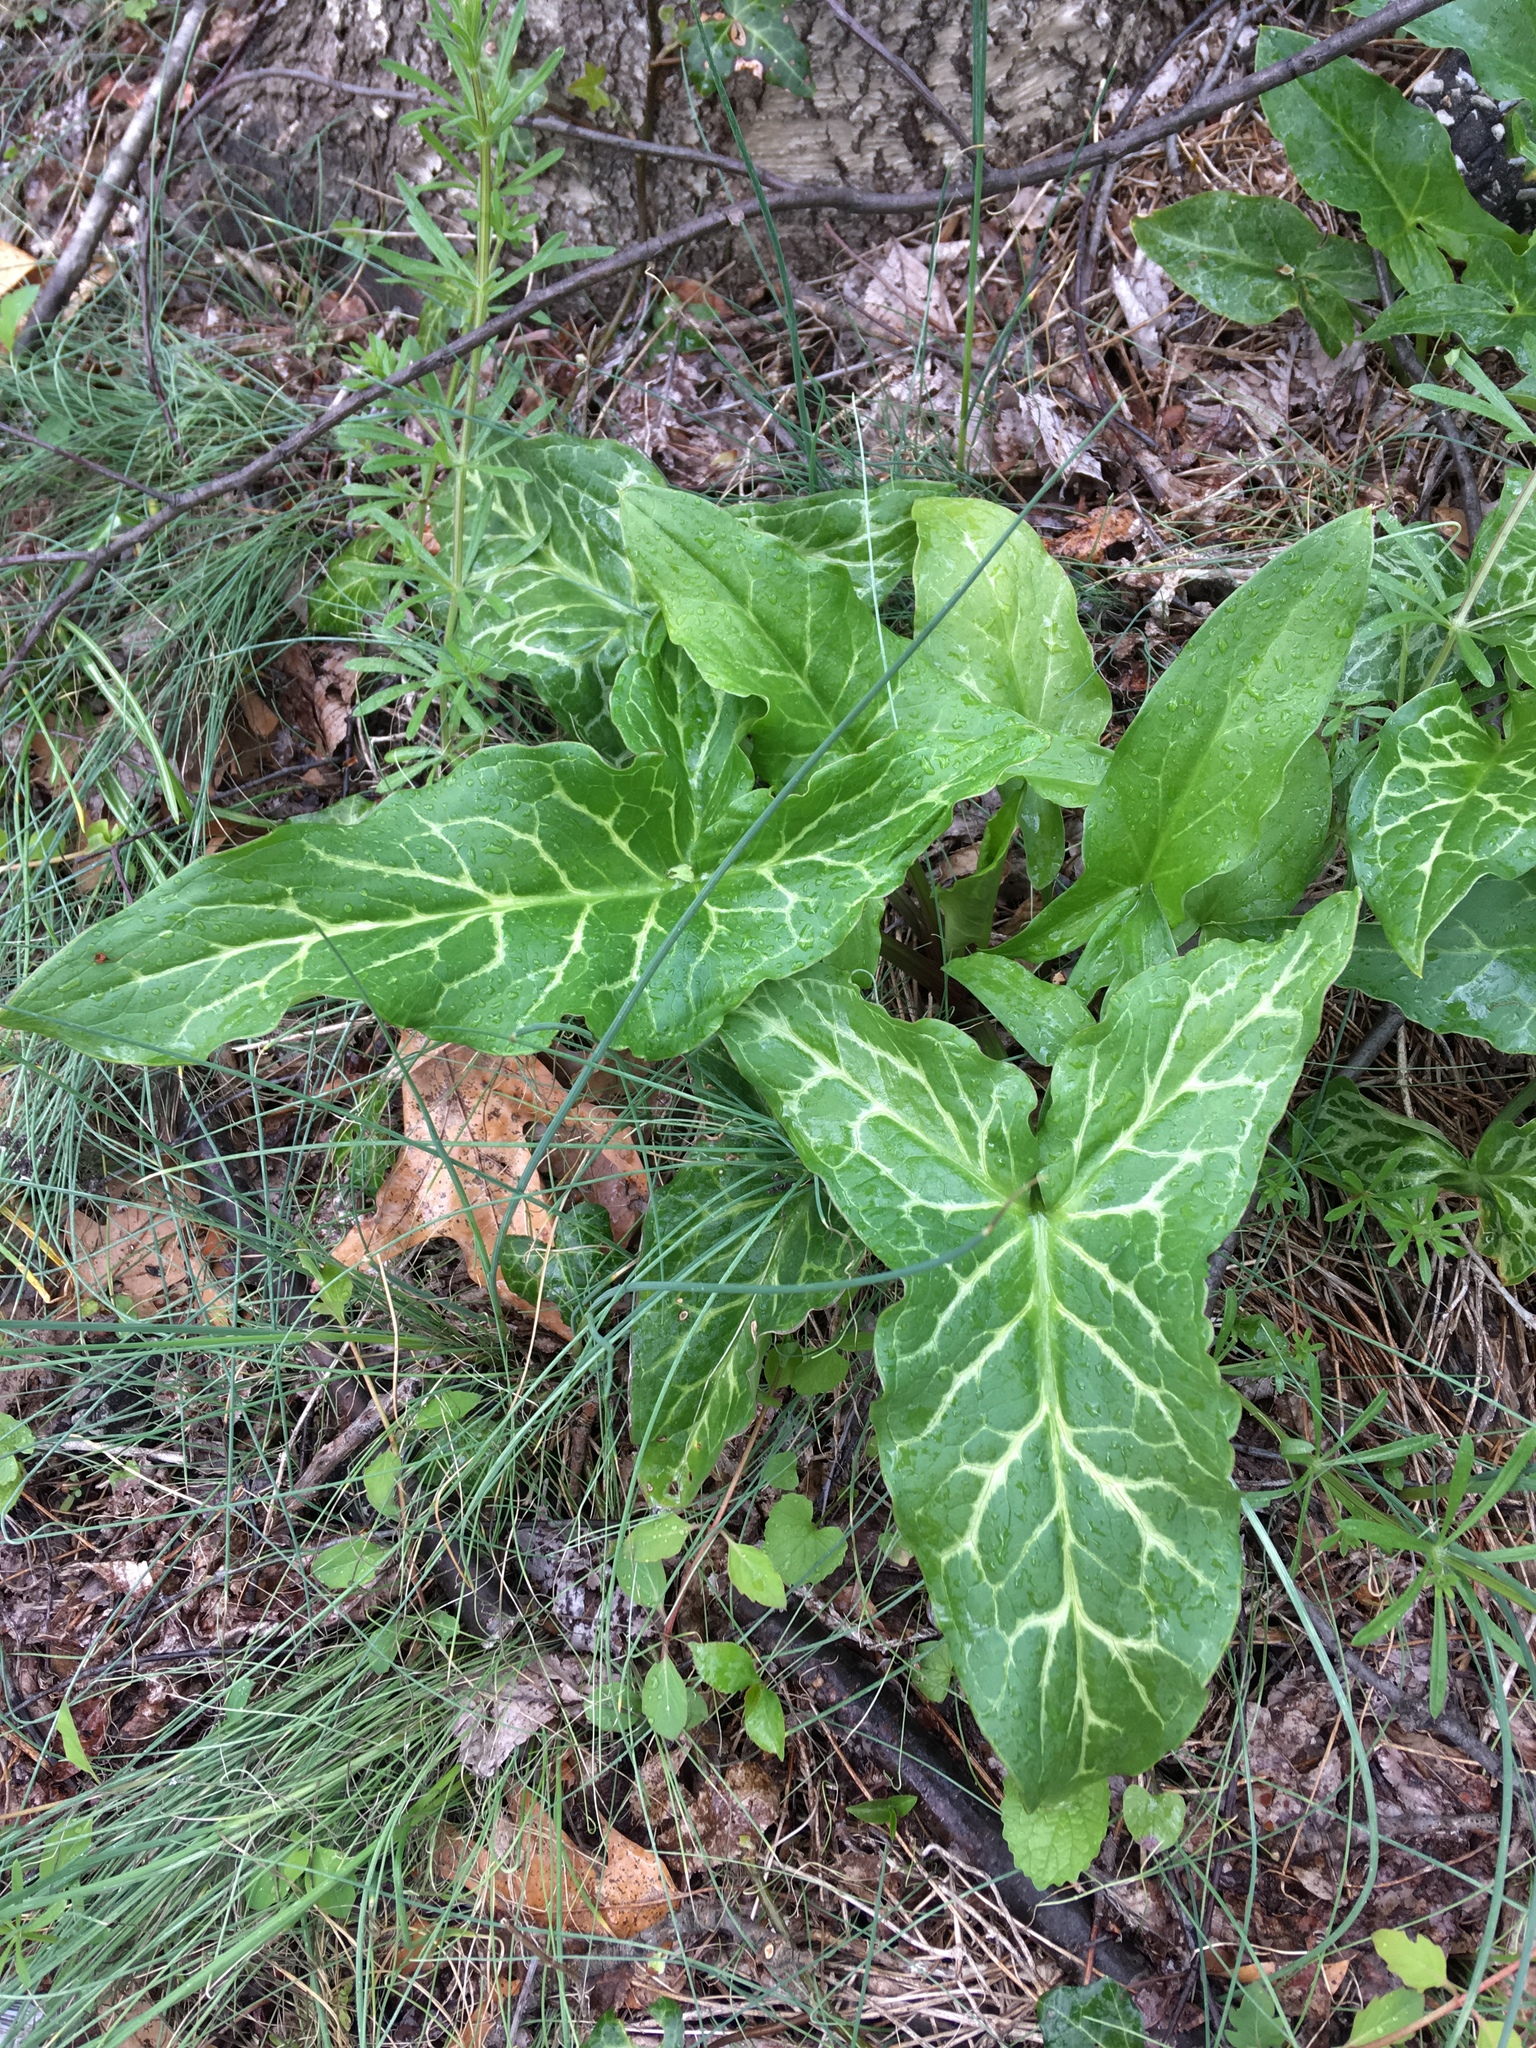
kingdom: Plantae
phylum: Tracheophyta
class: Liliopsida
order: Alismatales
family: Araceae
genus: Arum
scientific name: Arum italicum
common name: Italian lords-and-ladies
